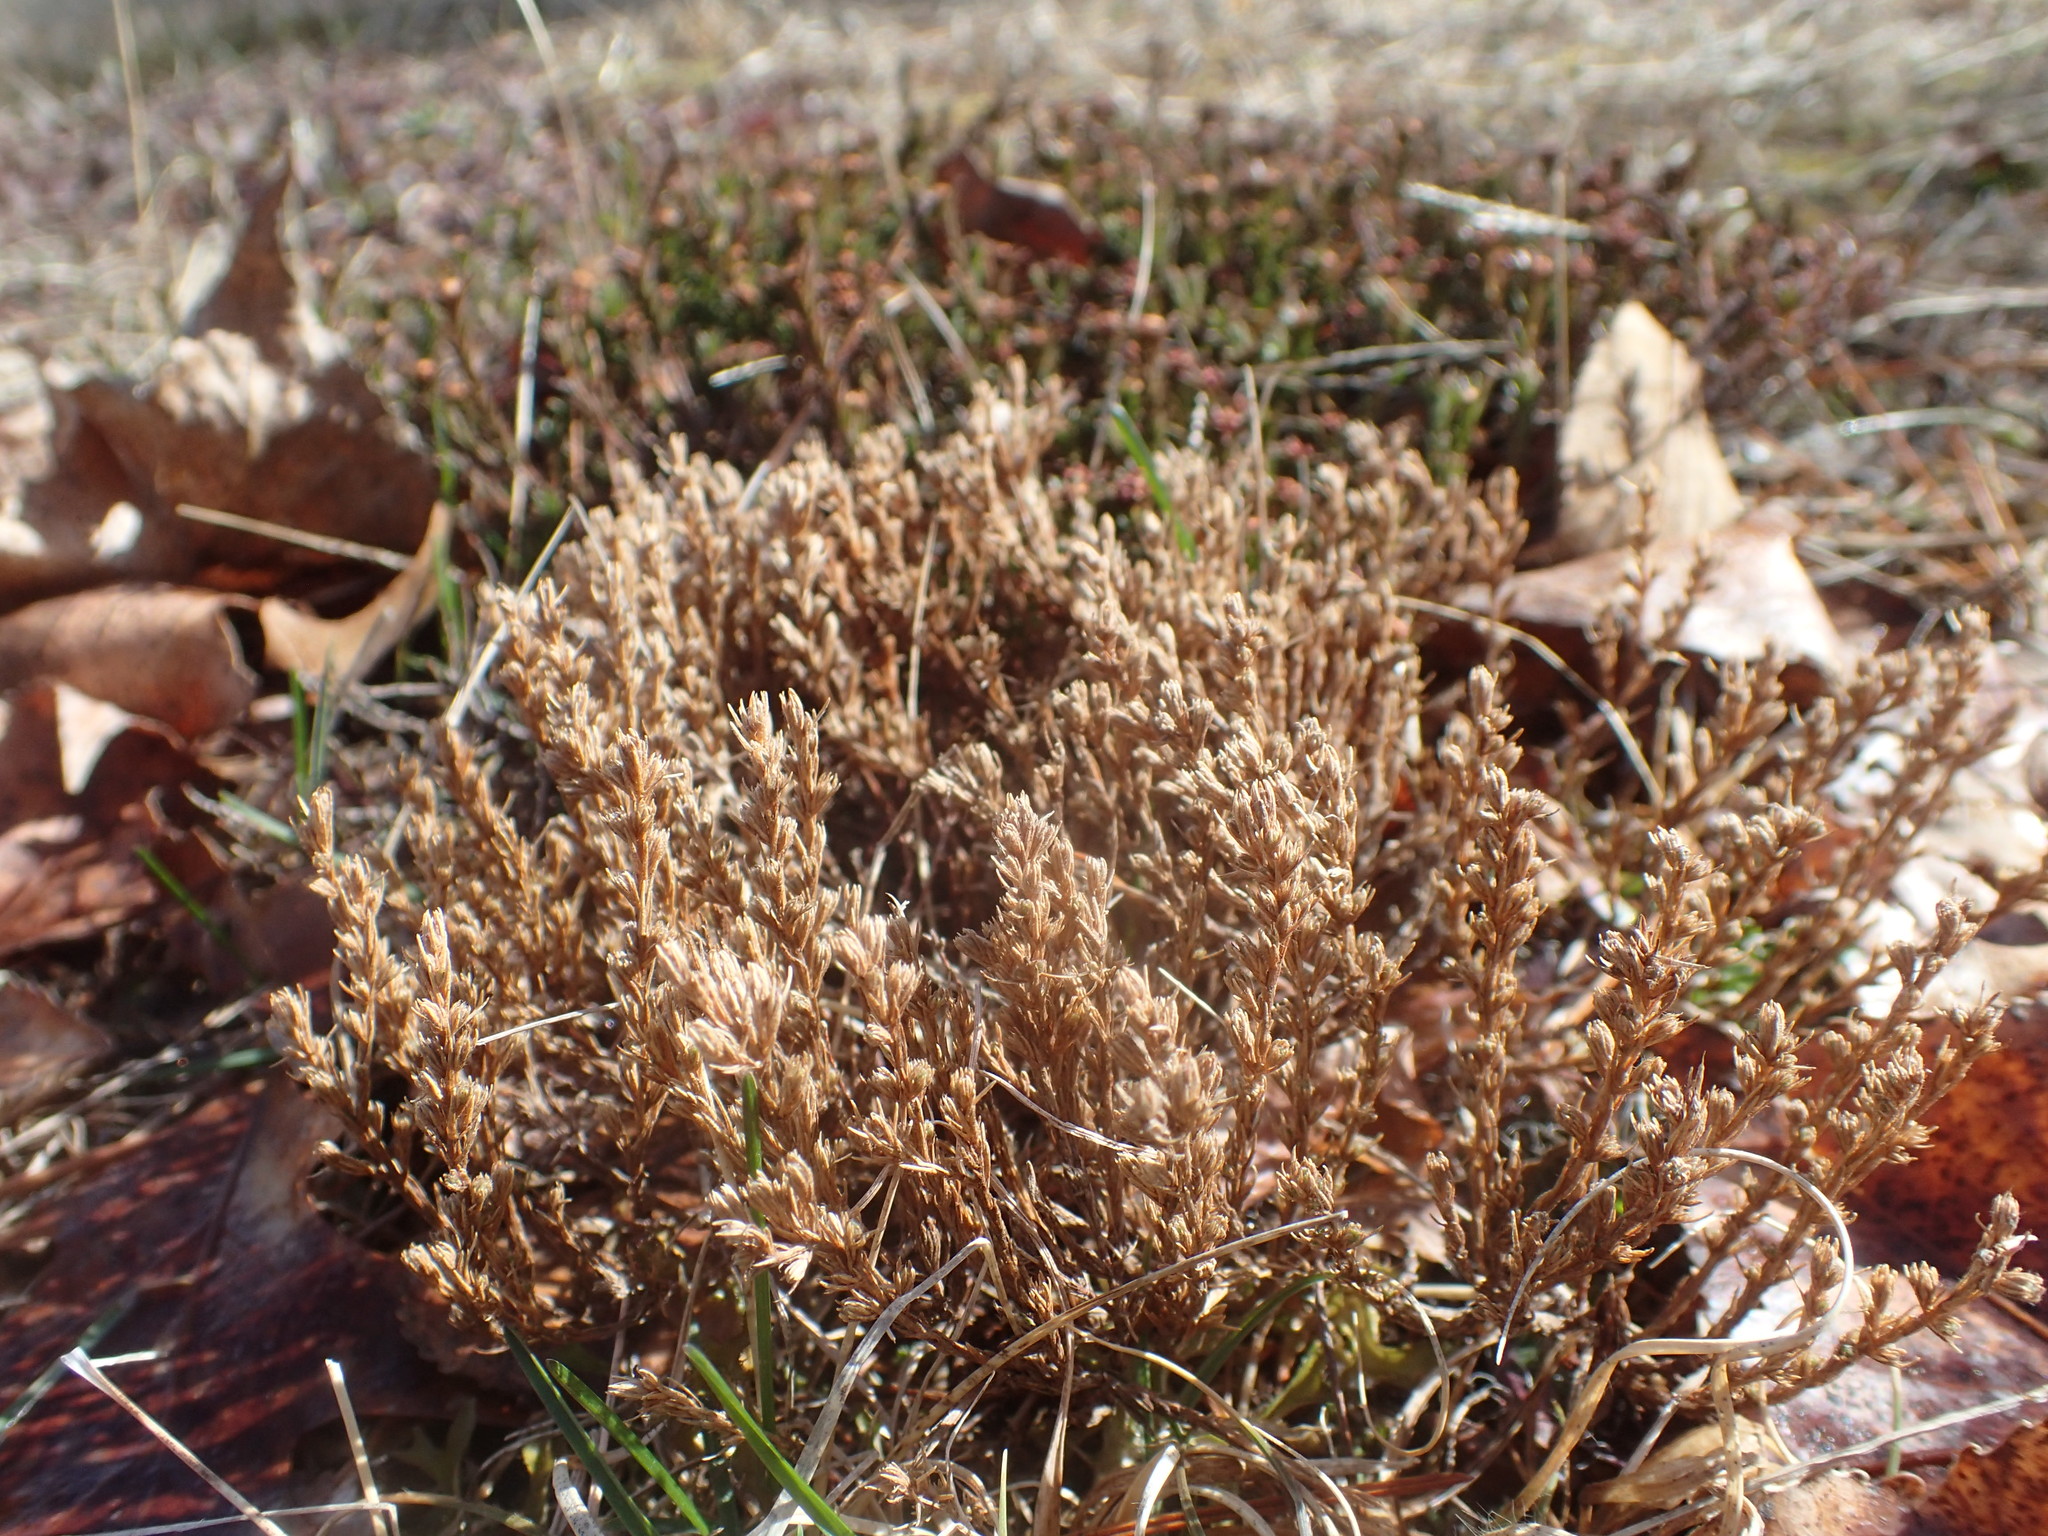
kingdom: Plantae
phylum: Tracheophyta
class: Magnoliopsida
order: Malvales
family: Cistaceae
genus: Hudsonia
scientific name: Hudsonia ericoides
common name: Golden-heather
